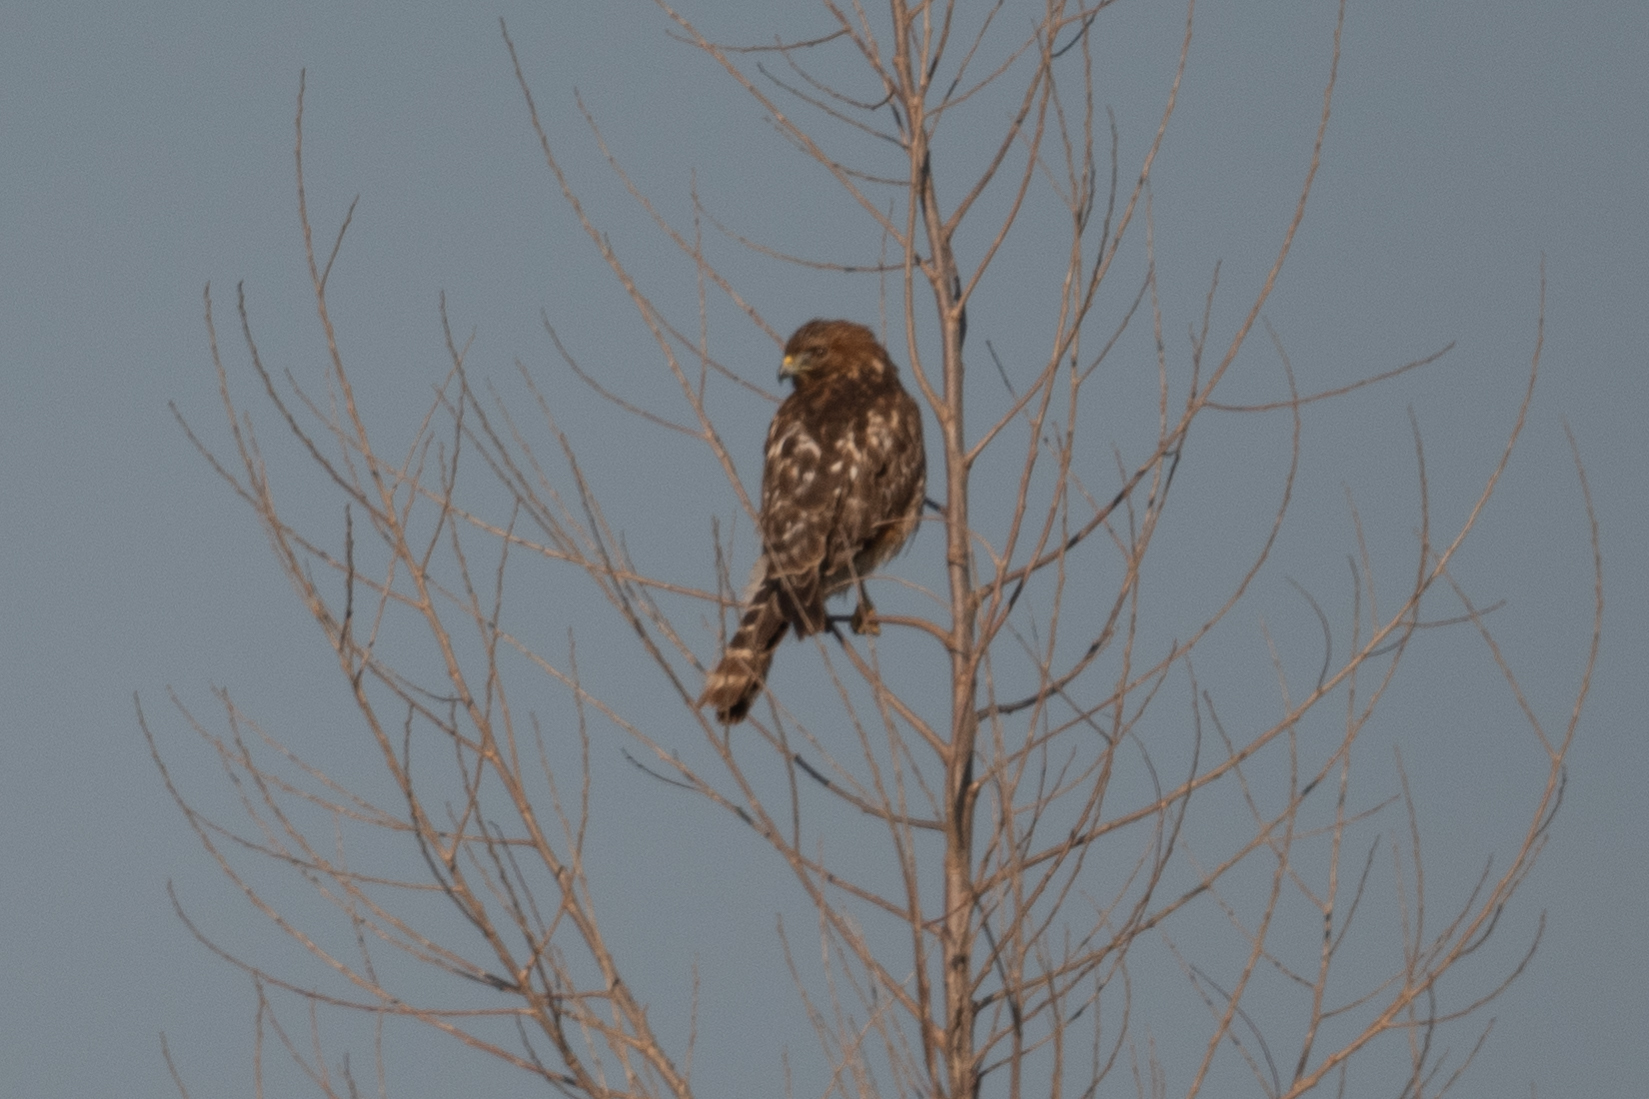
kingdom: Animalia
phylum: Chordata
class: Aves
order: Accipitriformes
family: Accipitridae
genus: Buteo
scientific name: Buteo lineatus
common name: Red-shouldered hawk
